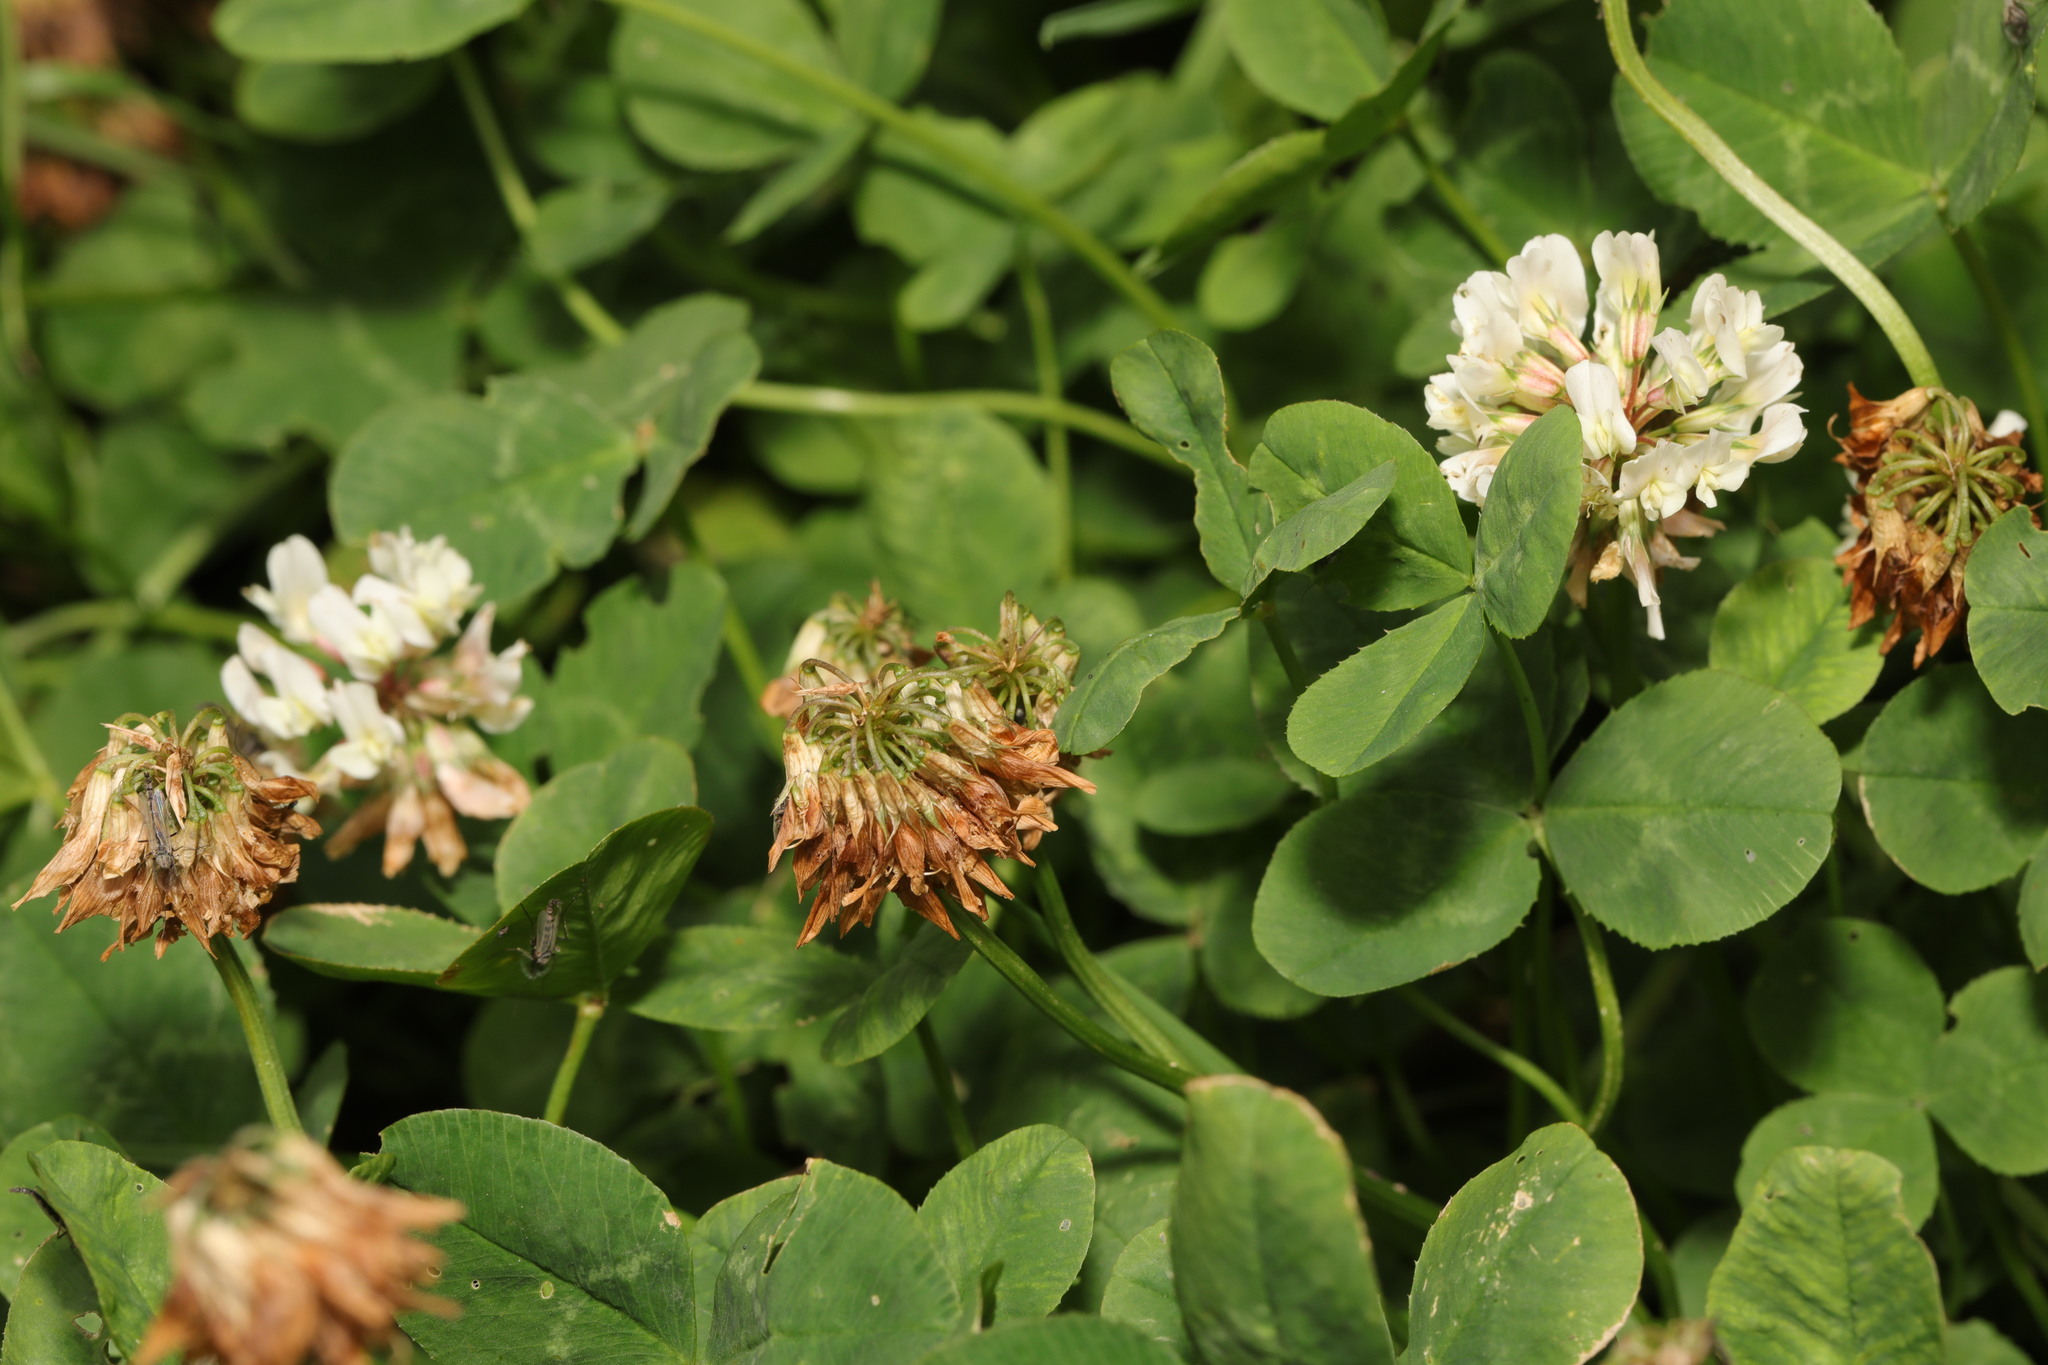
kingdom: Plantae
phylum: Tracheophyta
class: Magnoliopsida
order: Fabales
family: Fabaceae
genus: Trifolium
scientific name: Trifolium repens
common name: White clover
